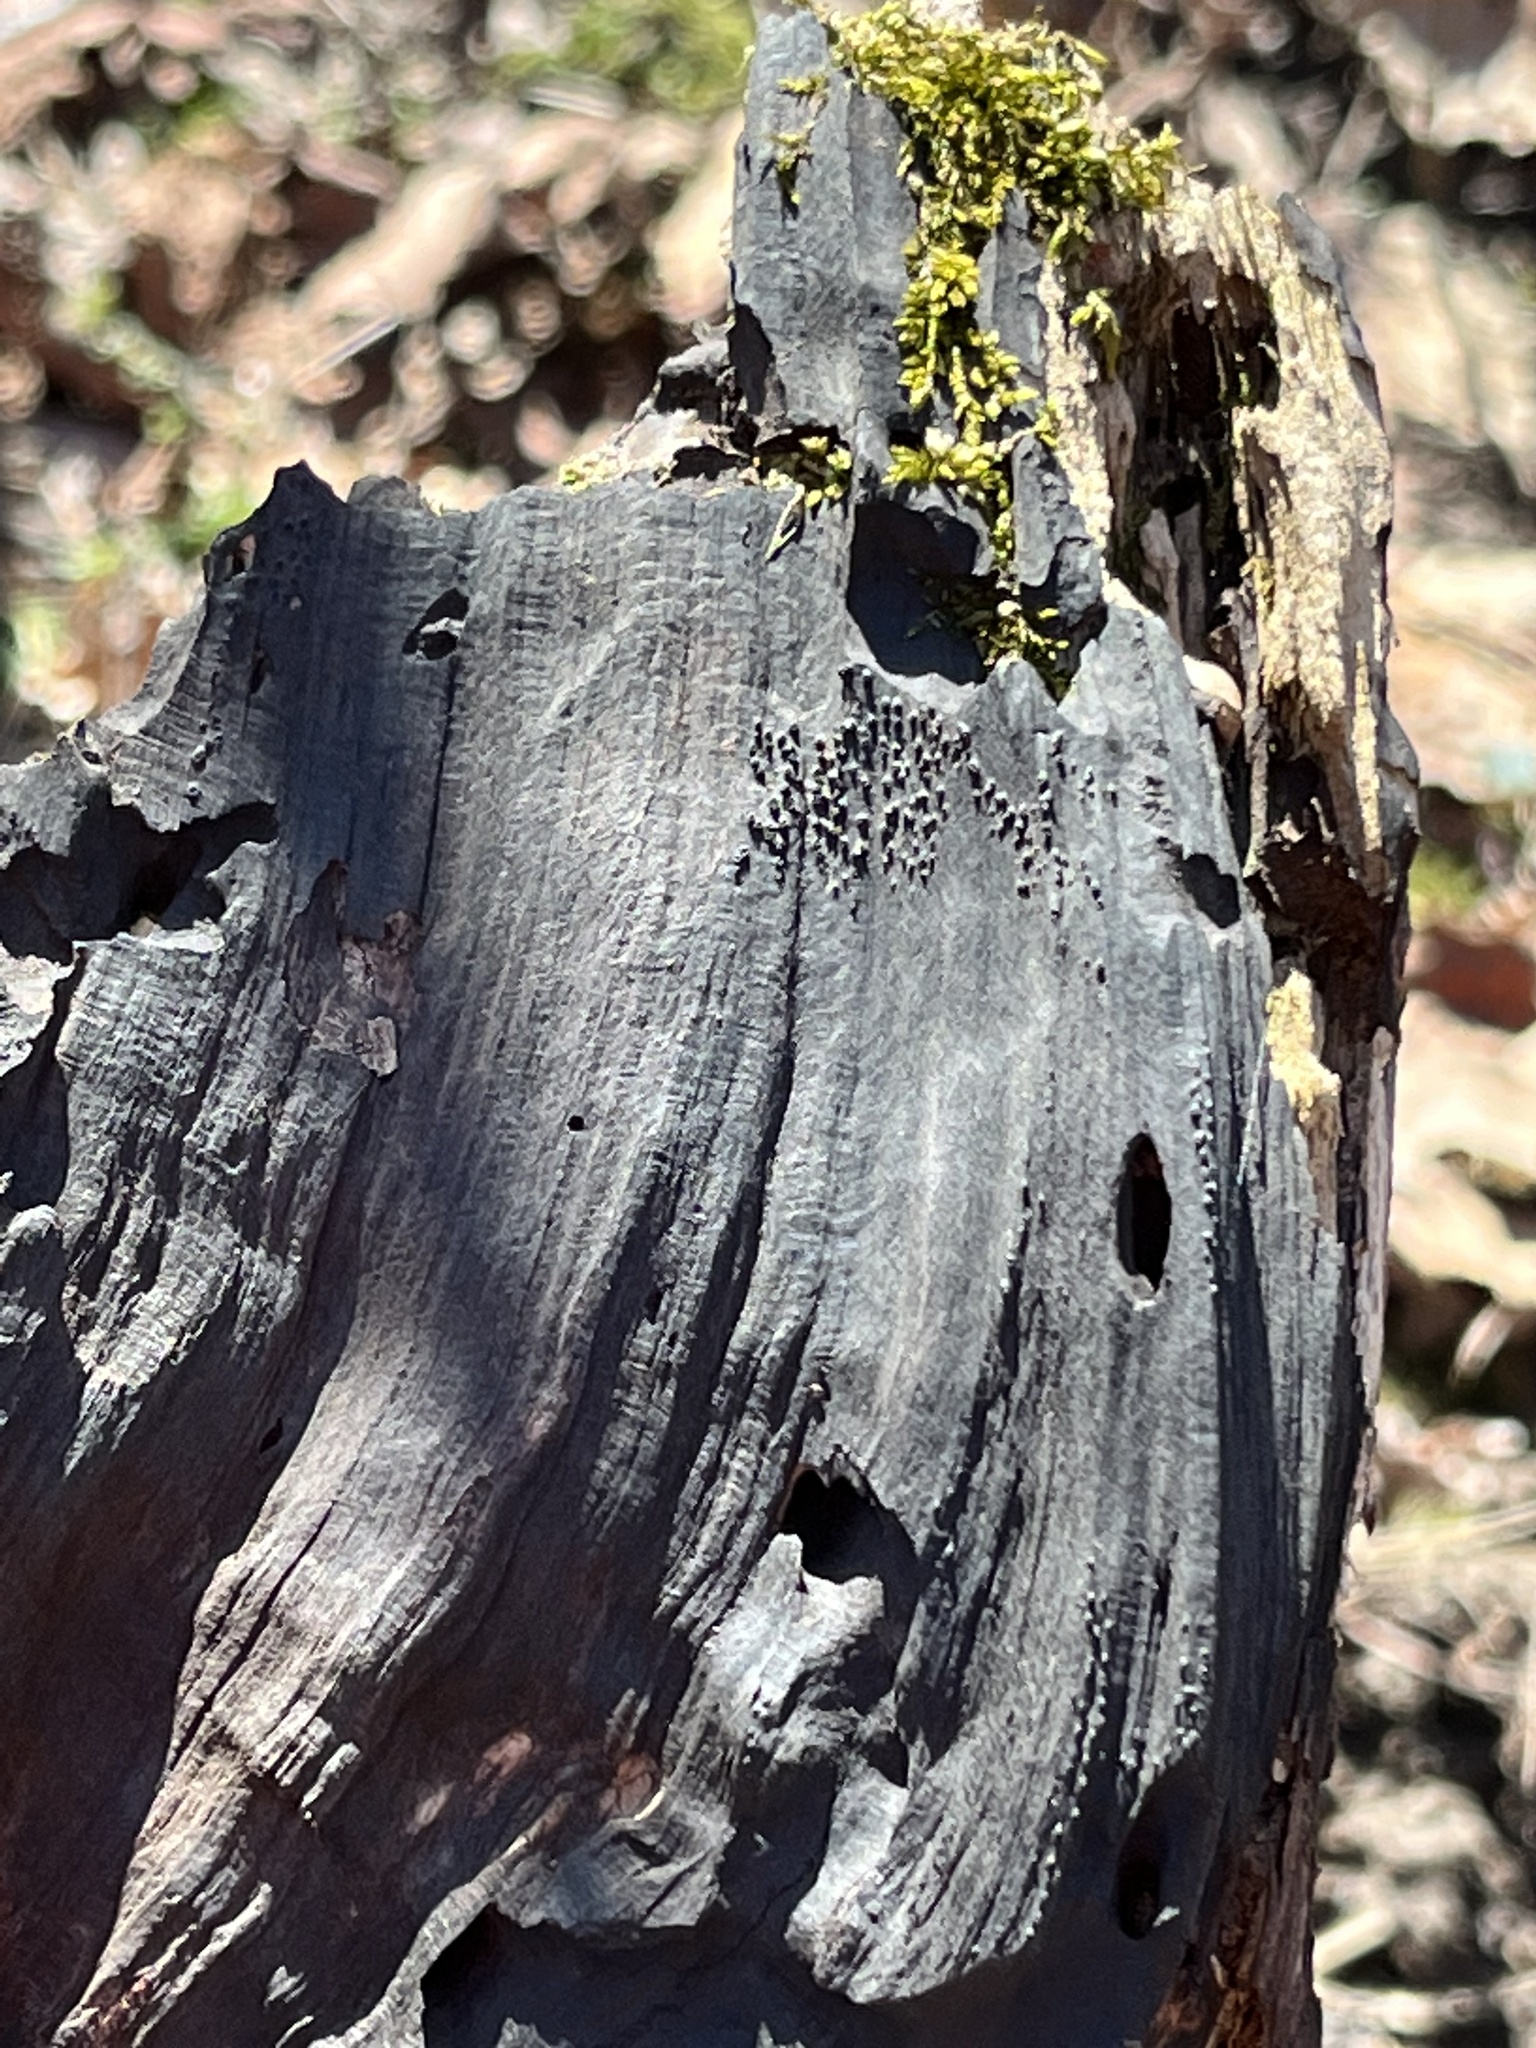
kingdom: Fungi
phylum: Ascomycota
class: Sordariomycetes
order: Xylariales
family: Diatrypaceae
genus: Eutypa
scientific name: Eutypa spinosa
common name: Spiral tarcrust
